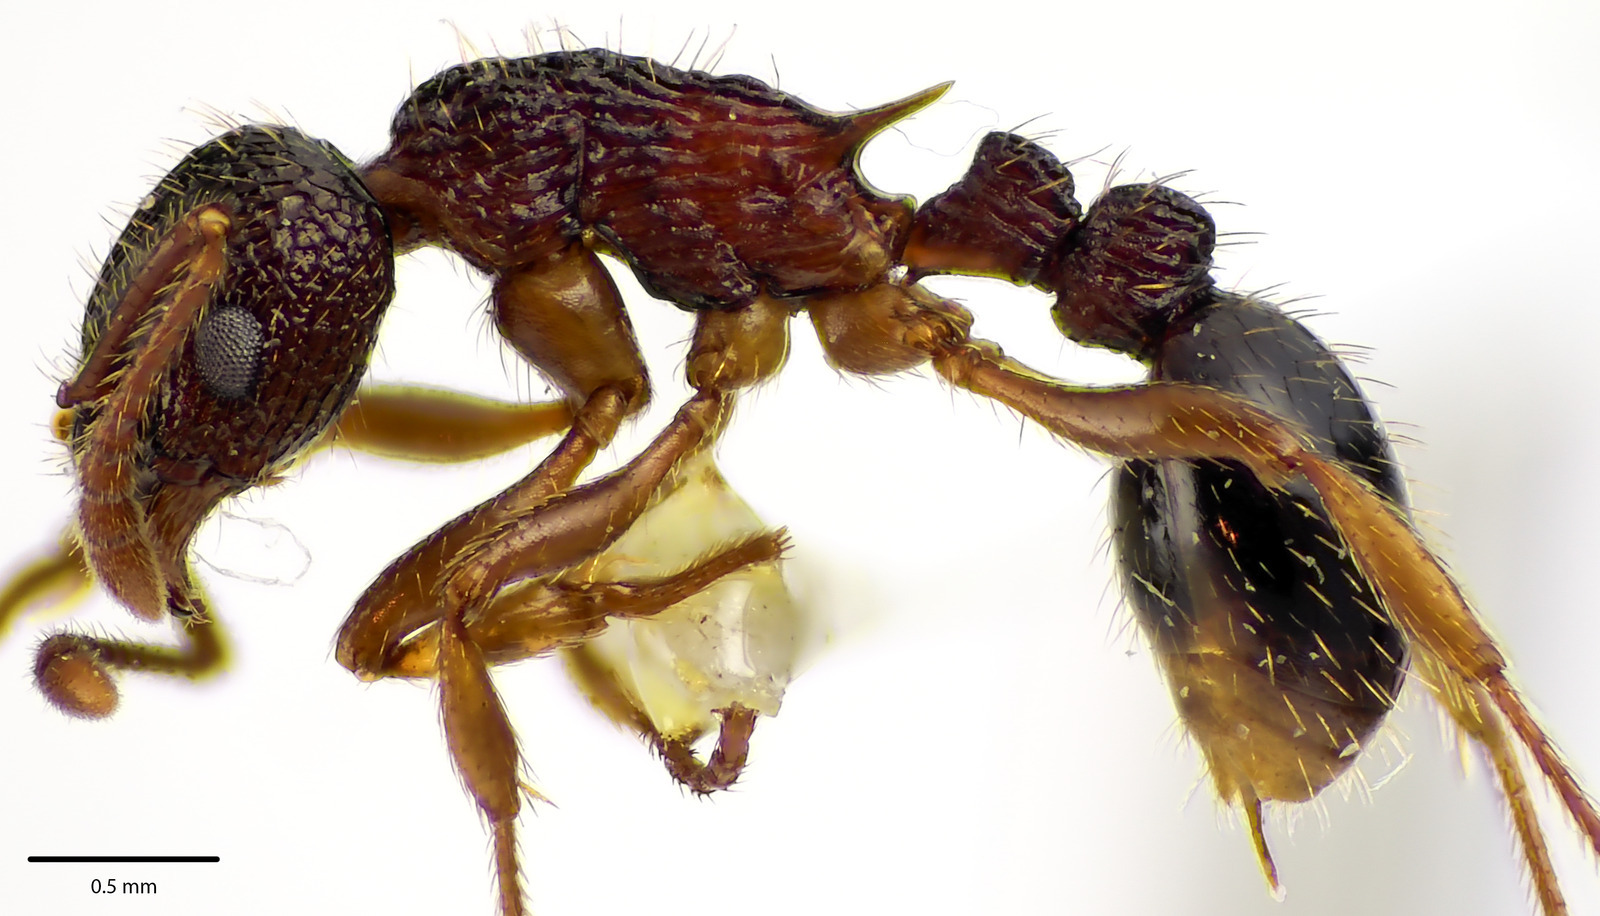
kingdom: Animalia
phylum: Arthropoda
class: Insecta
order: Hymenoptera
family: Formicidae
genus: Myrmica
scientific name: Myrmica spatulata
